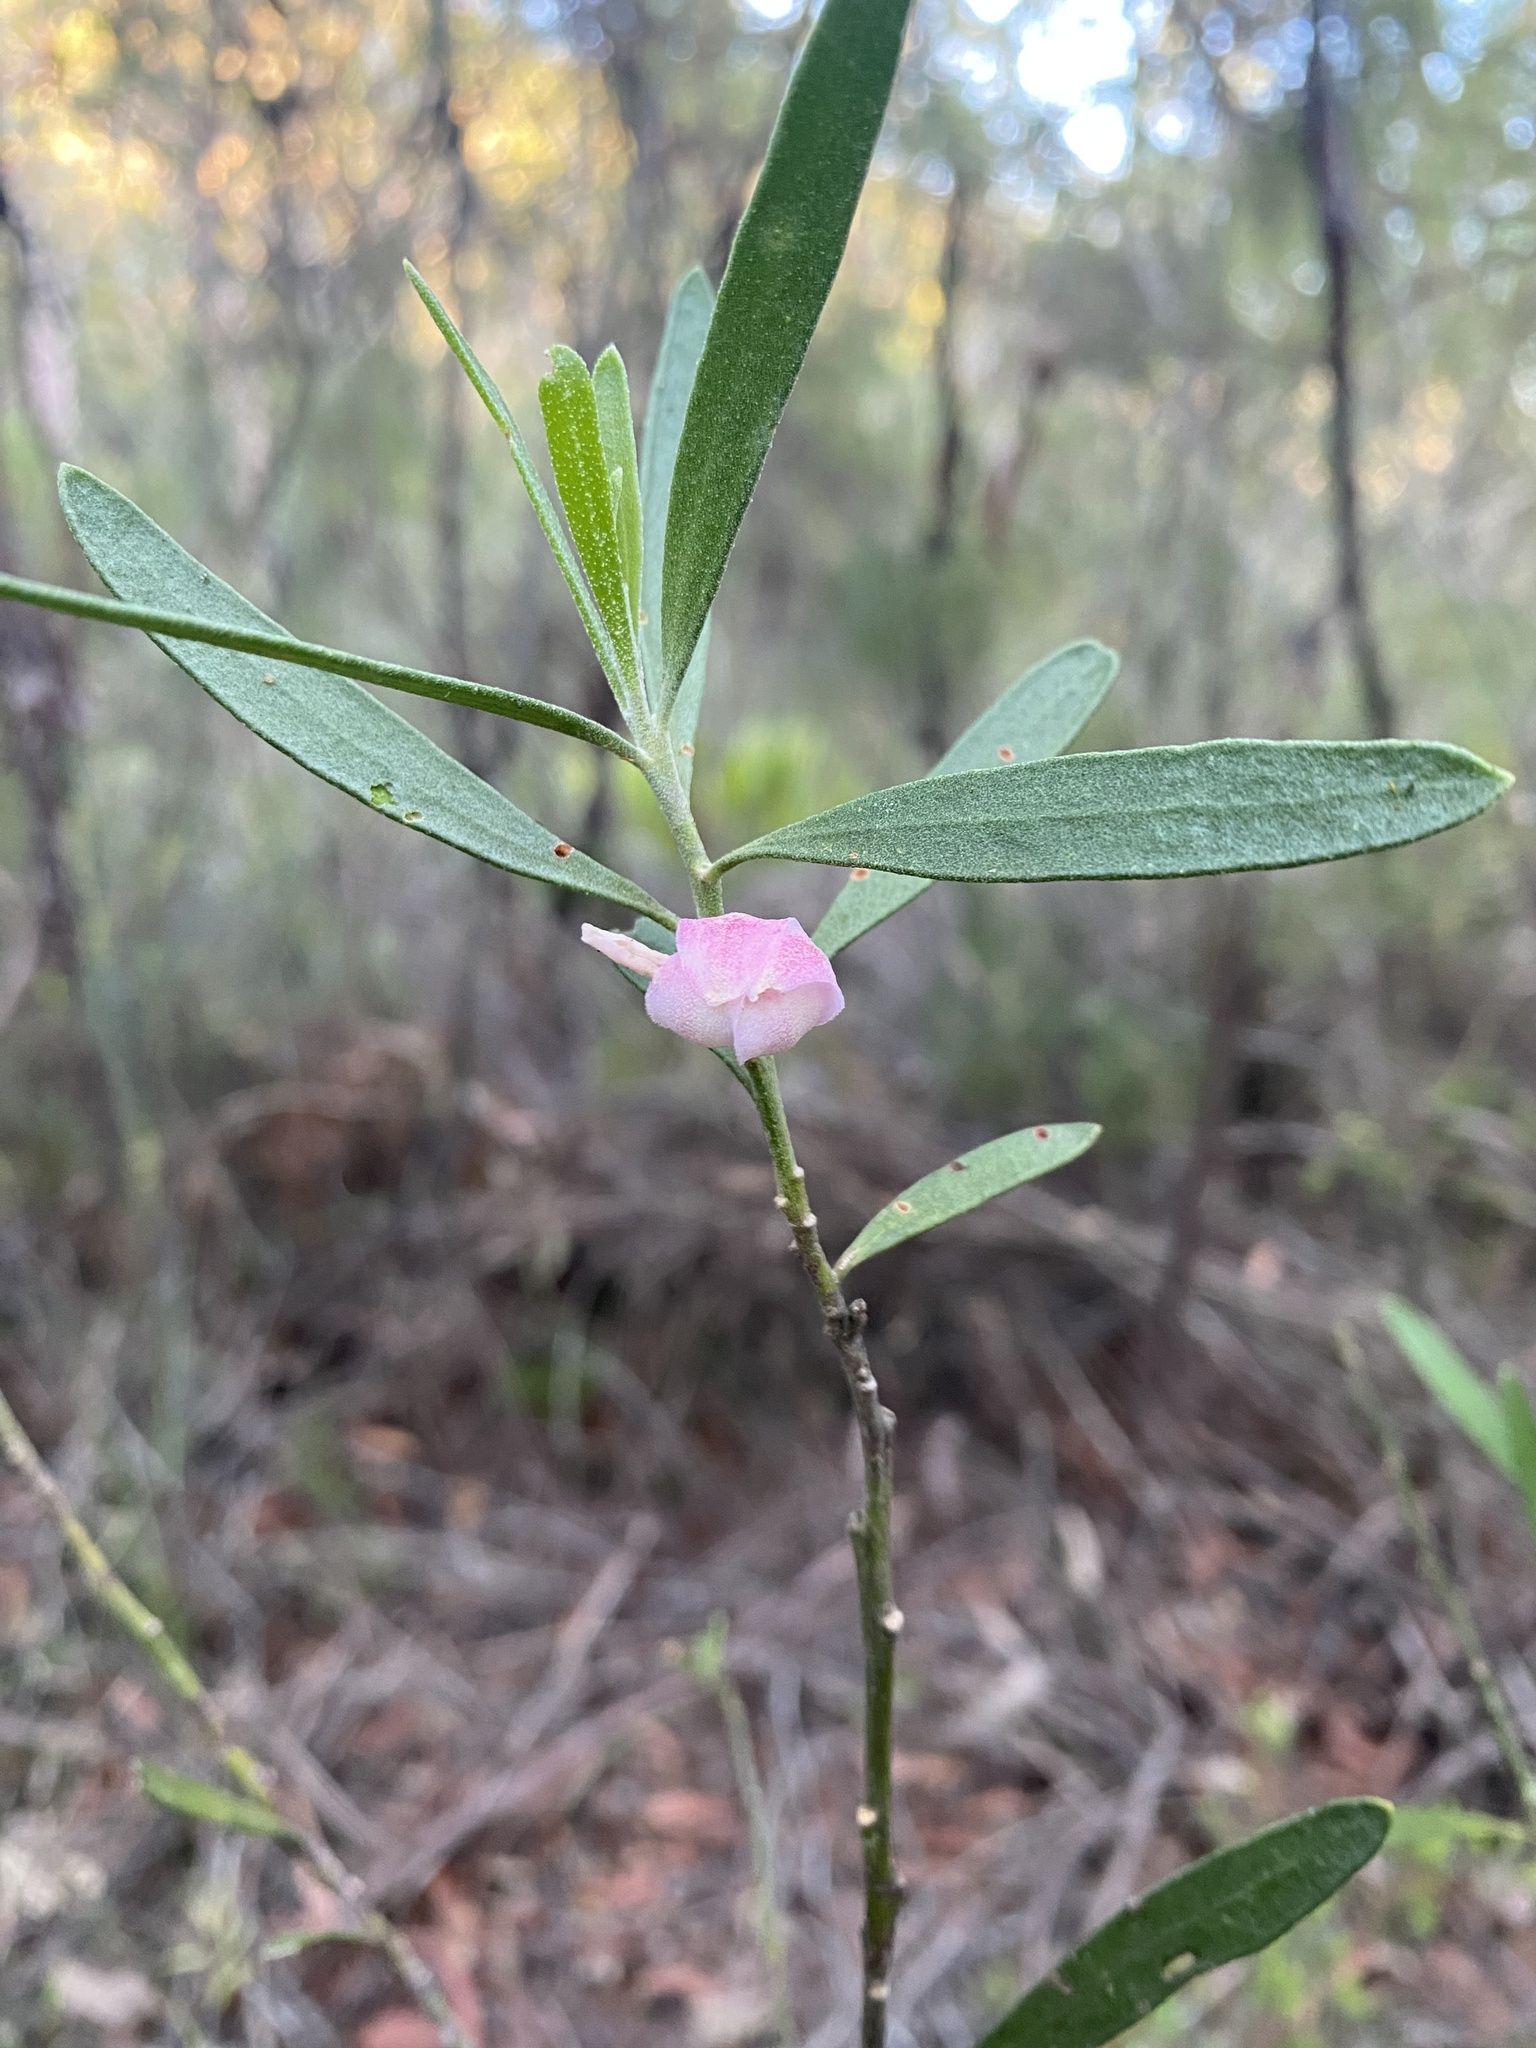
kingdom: Plantae
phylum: Tracheophyta
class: Magnoliopsida
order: Sapindales
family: Rutaceae
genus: Eriostemon
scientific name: Eriostemon australasius
